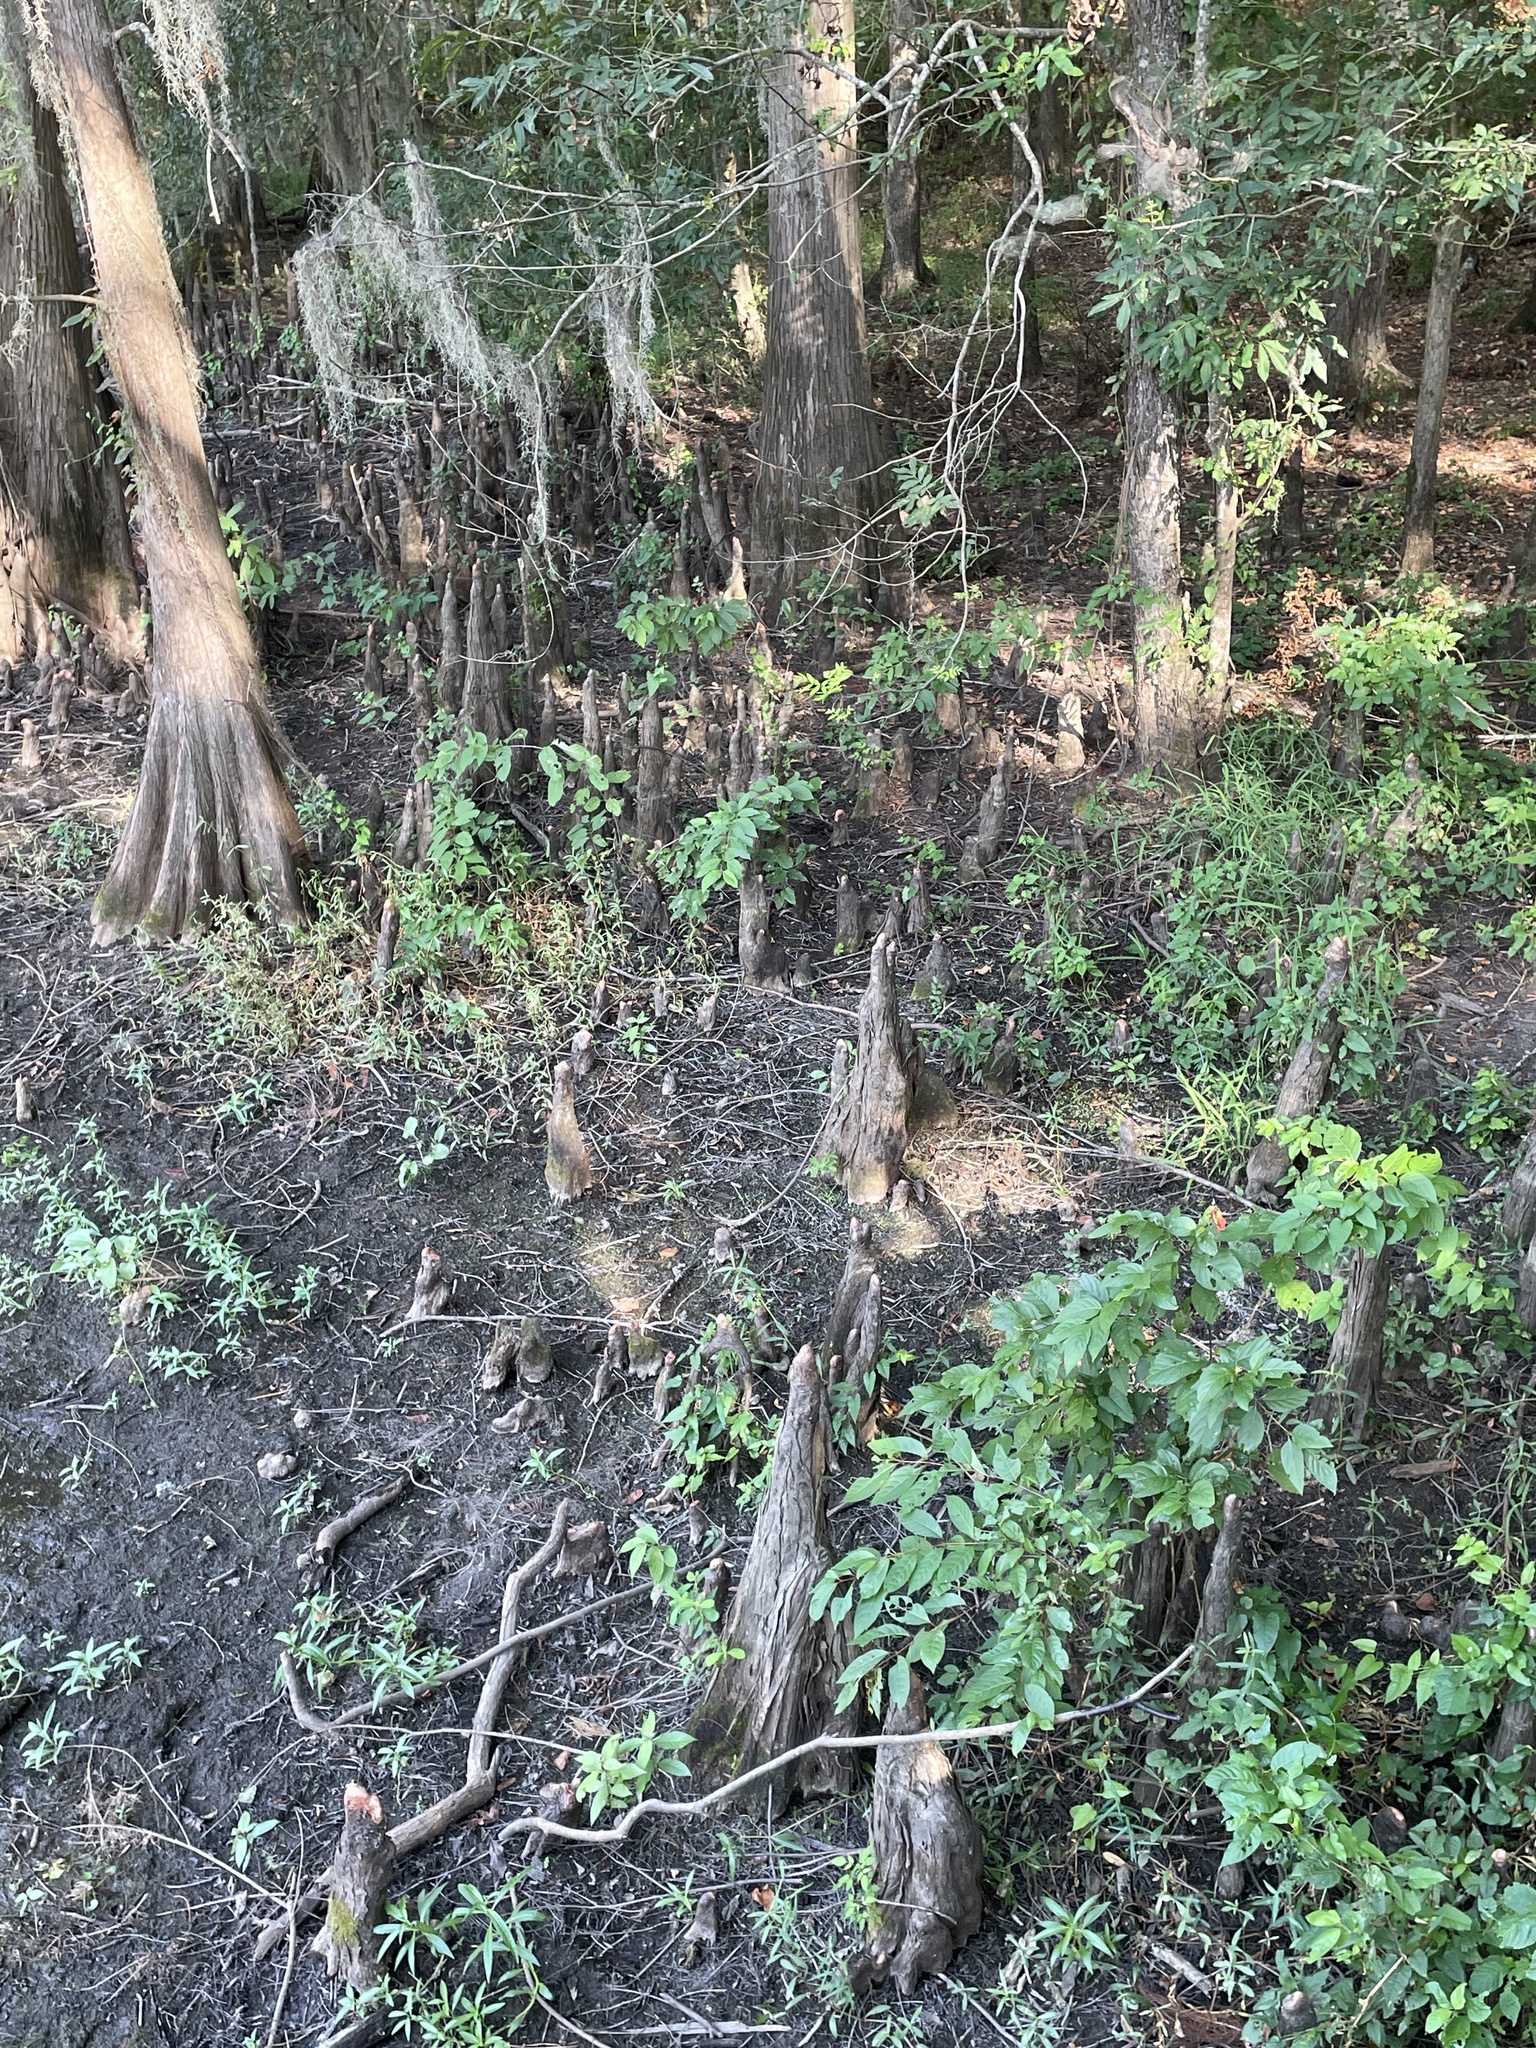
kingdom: Plantae
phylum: Tracheophyta
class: Pinopsida
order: Pinales
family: Cupressaceae
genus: Taxodium
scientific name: Taxodium distichum
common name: Bald cypress
